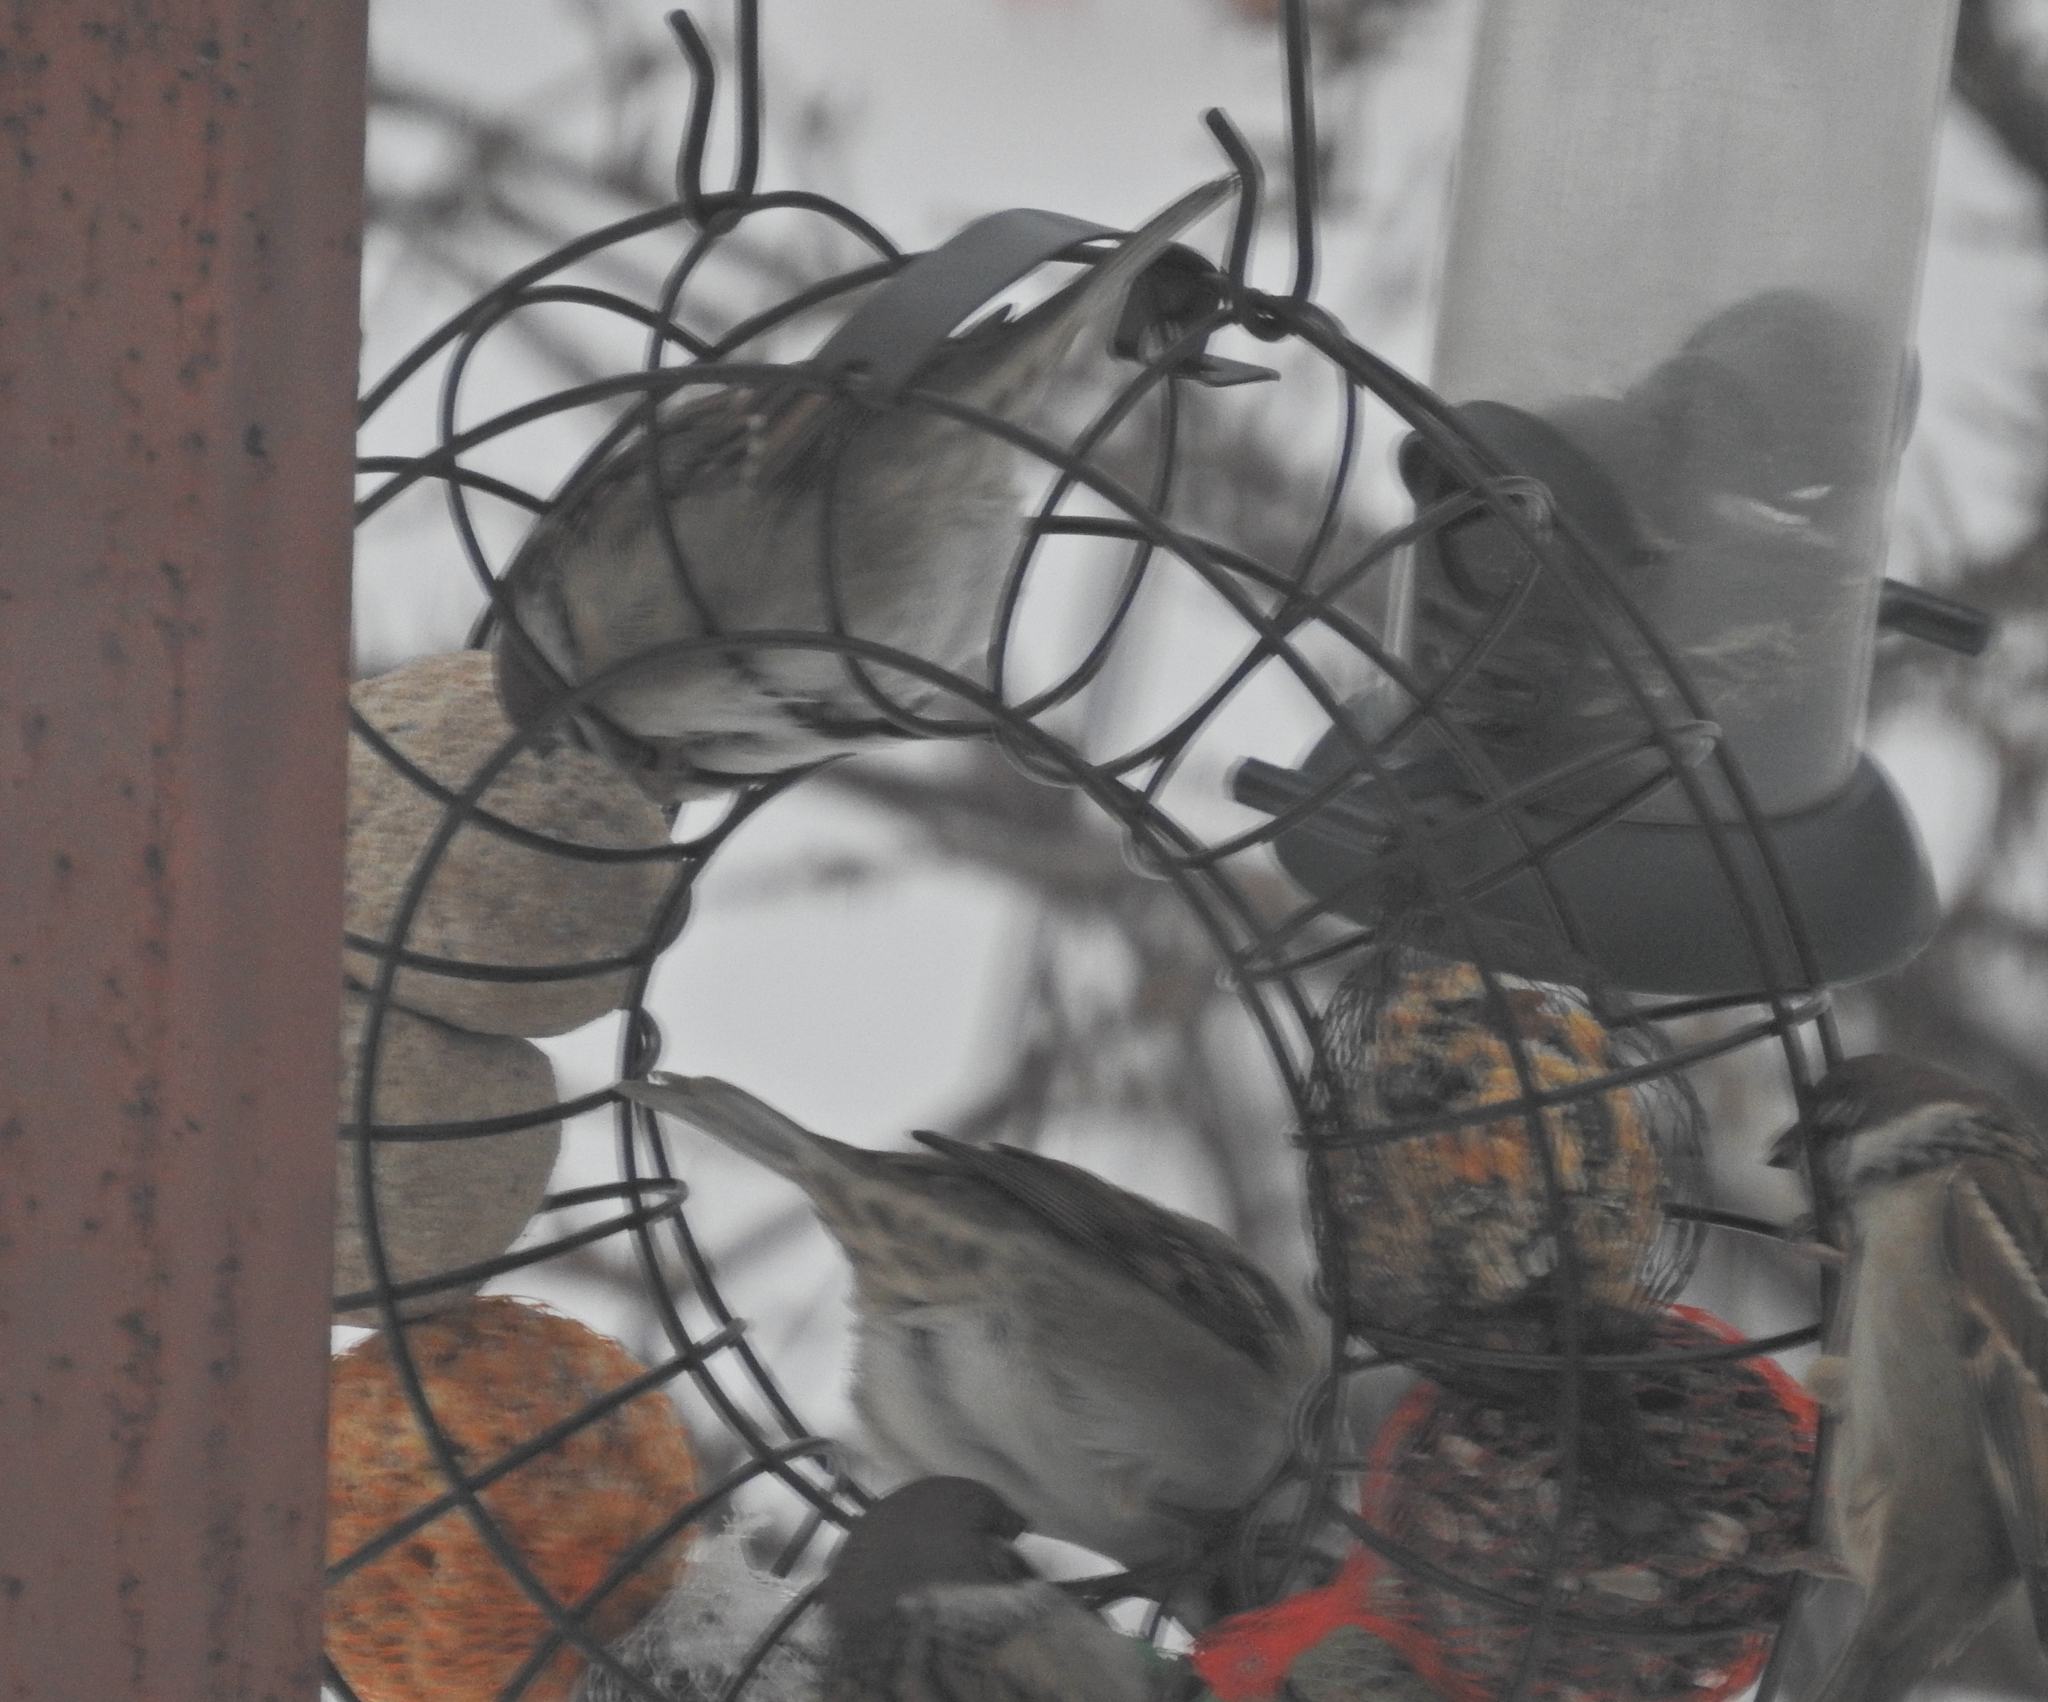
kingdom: Animalia
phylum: Chordata
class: Aves
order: Passeriformes
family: Passeridae
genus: Passer
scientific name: Passer montanus
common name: Eurasian tree sparrow
